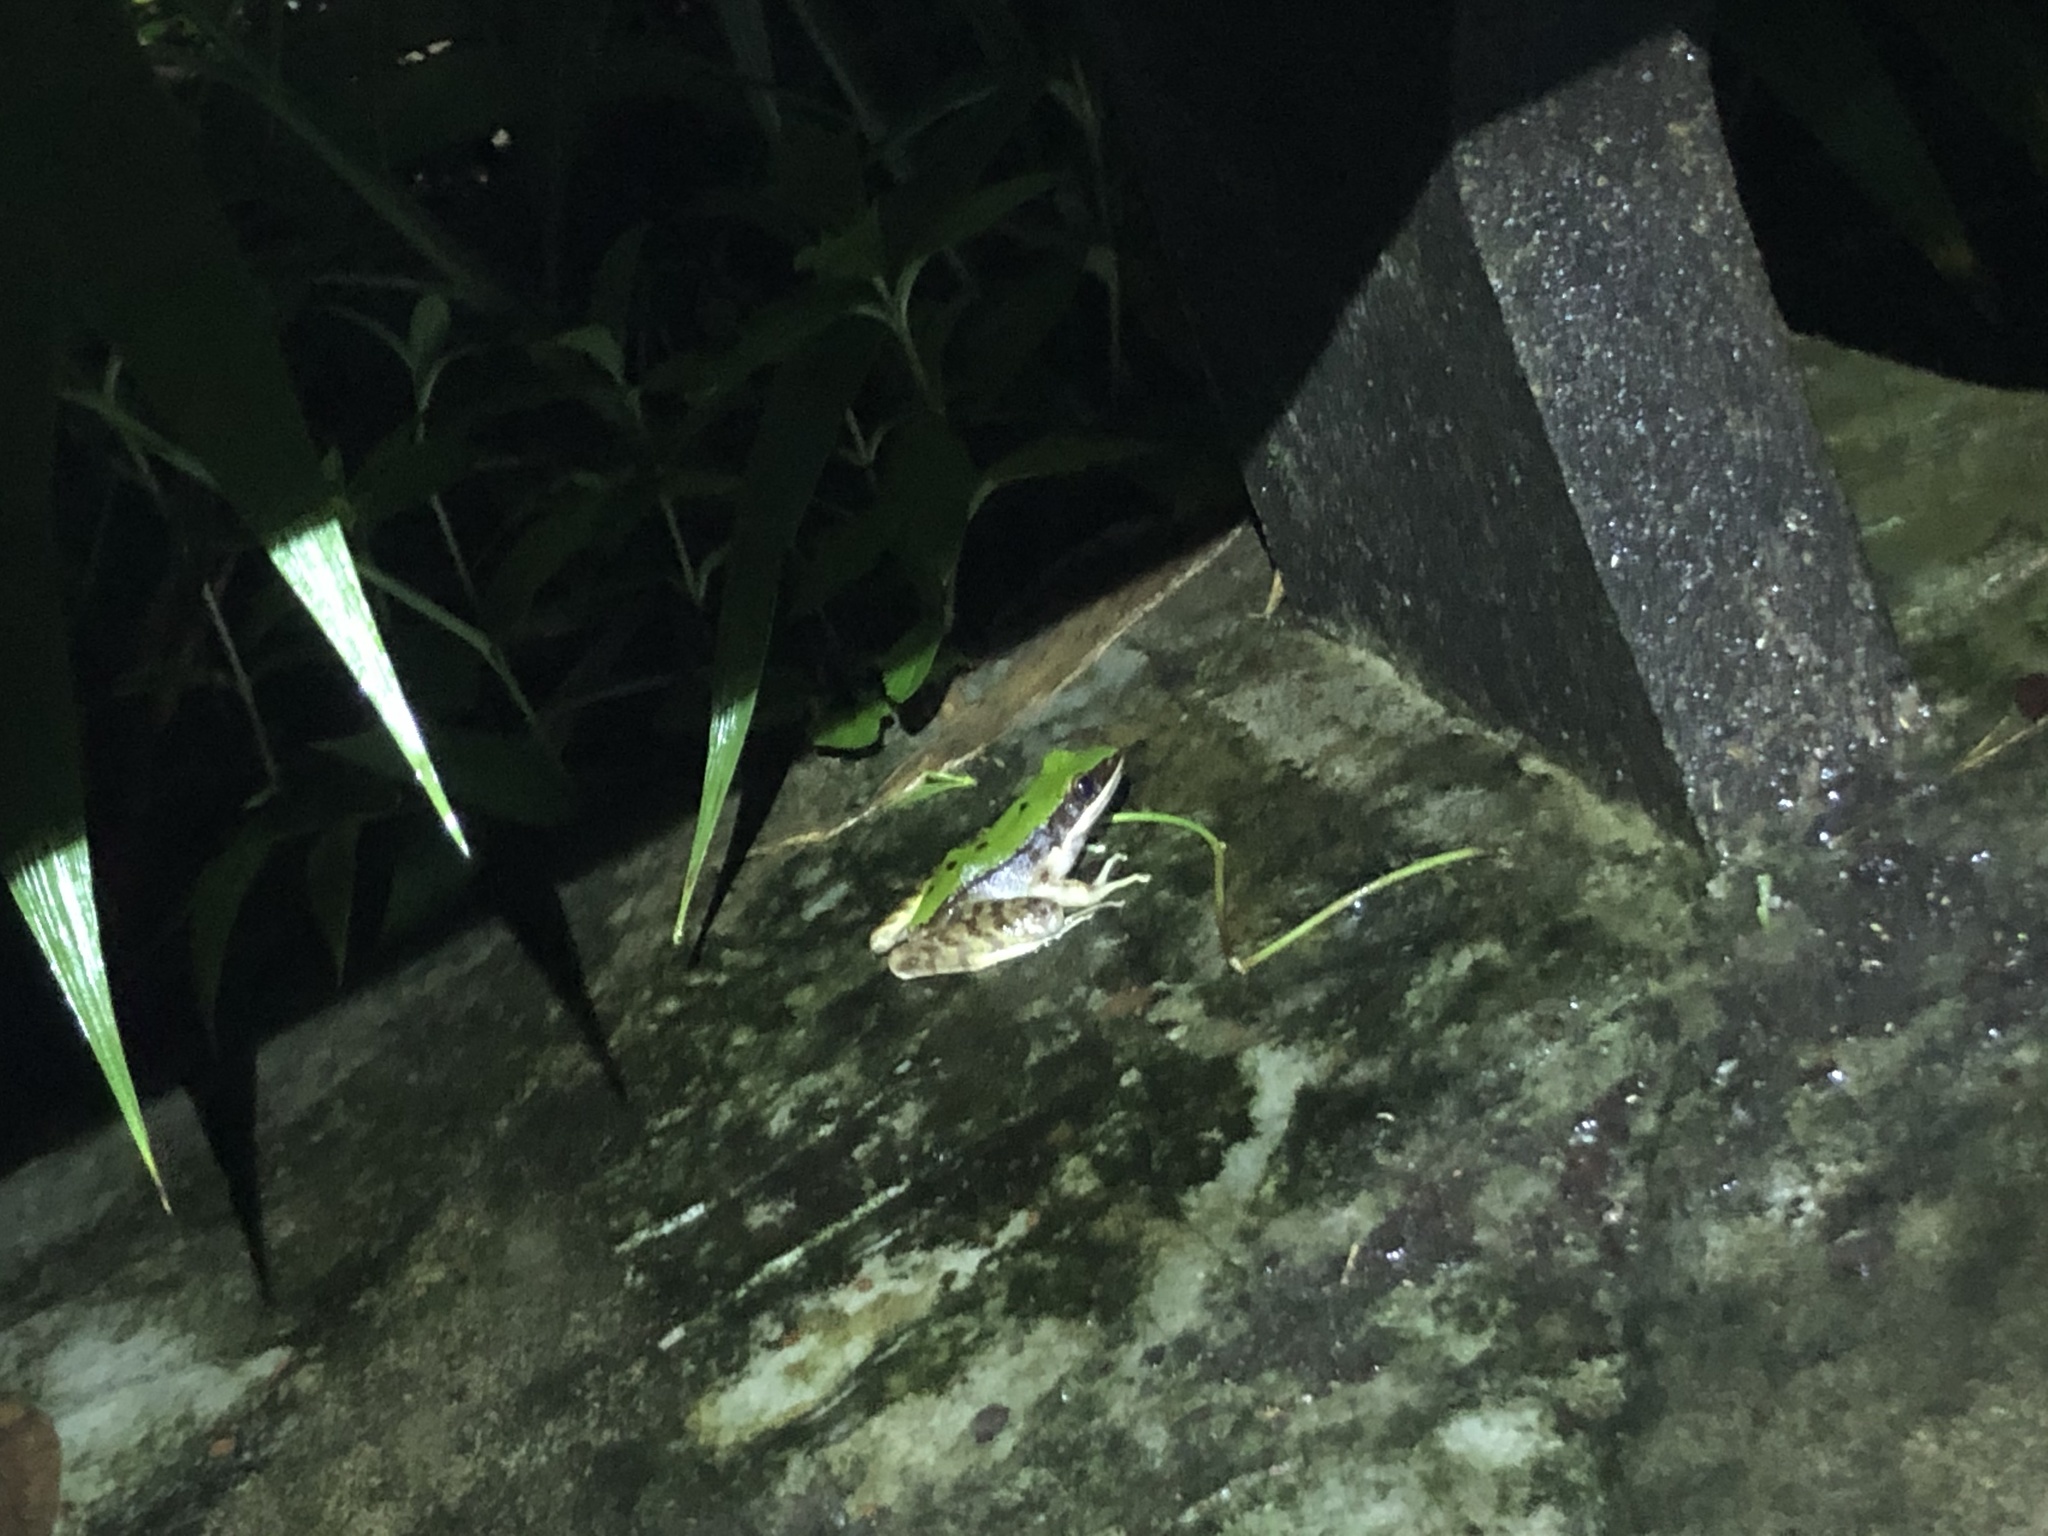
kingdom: Animalia
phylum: Chordata
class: Amphibia
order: Anura
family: Ranidae
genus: Odorrana
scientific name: Odorrana graminea
